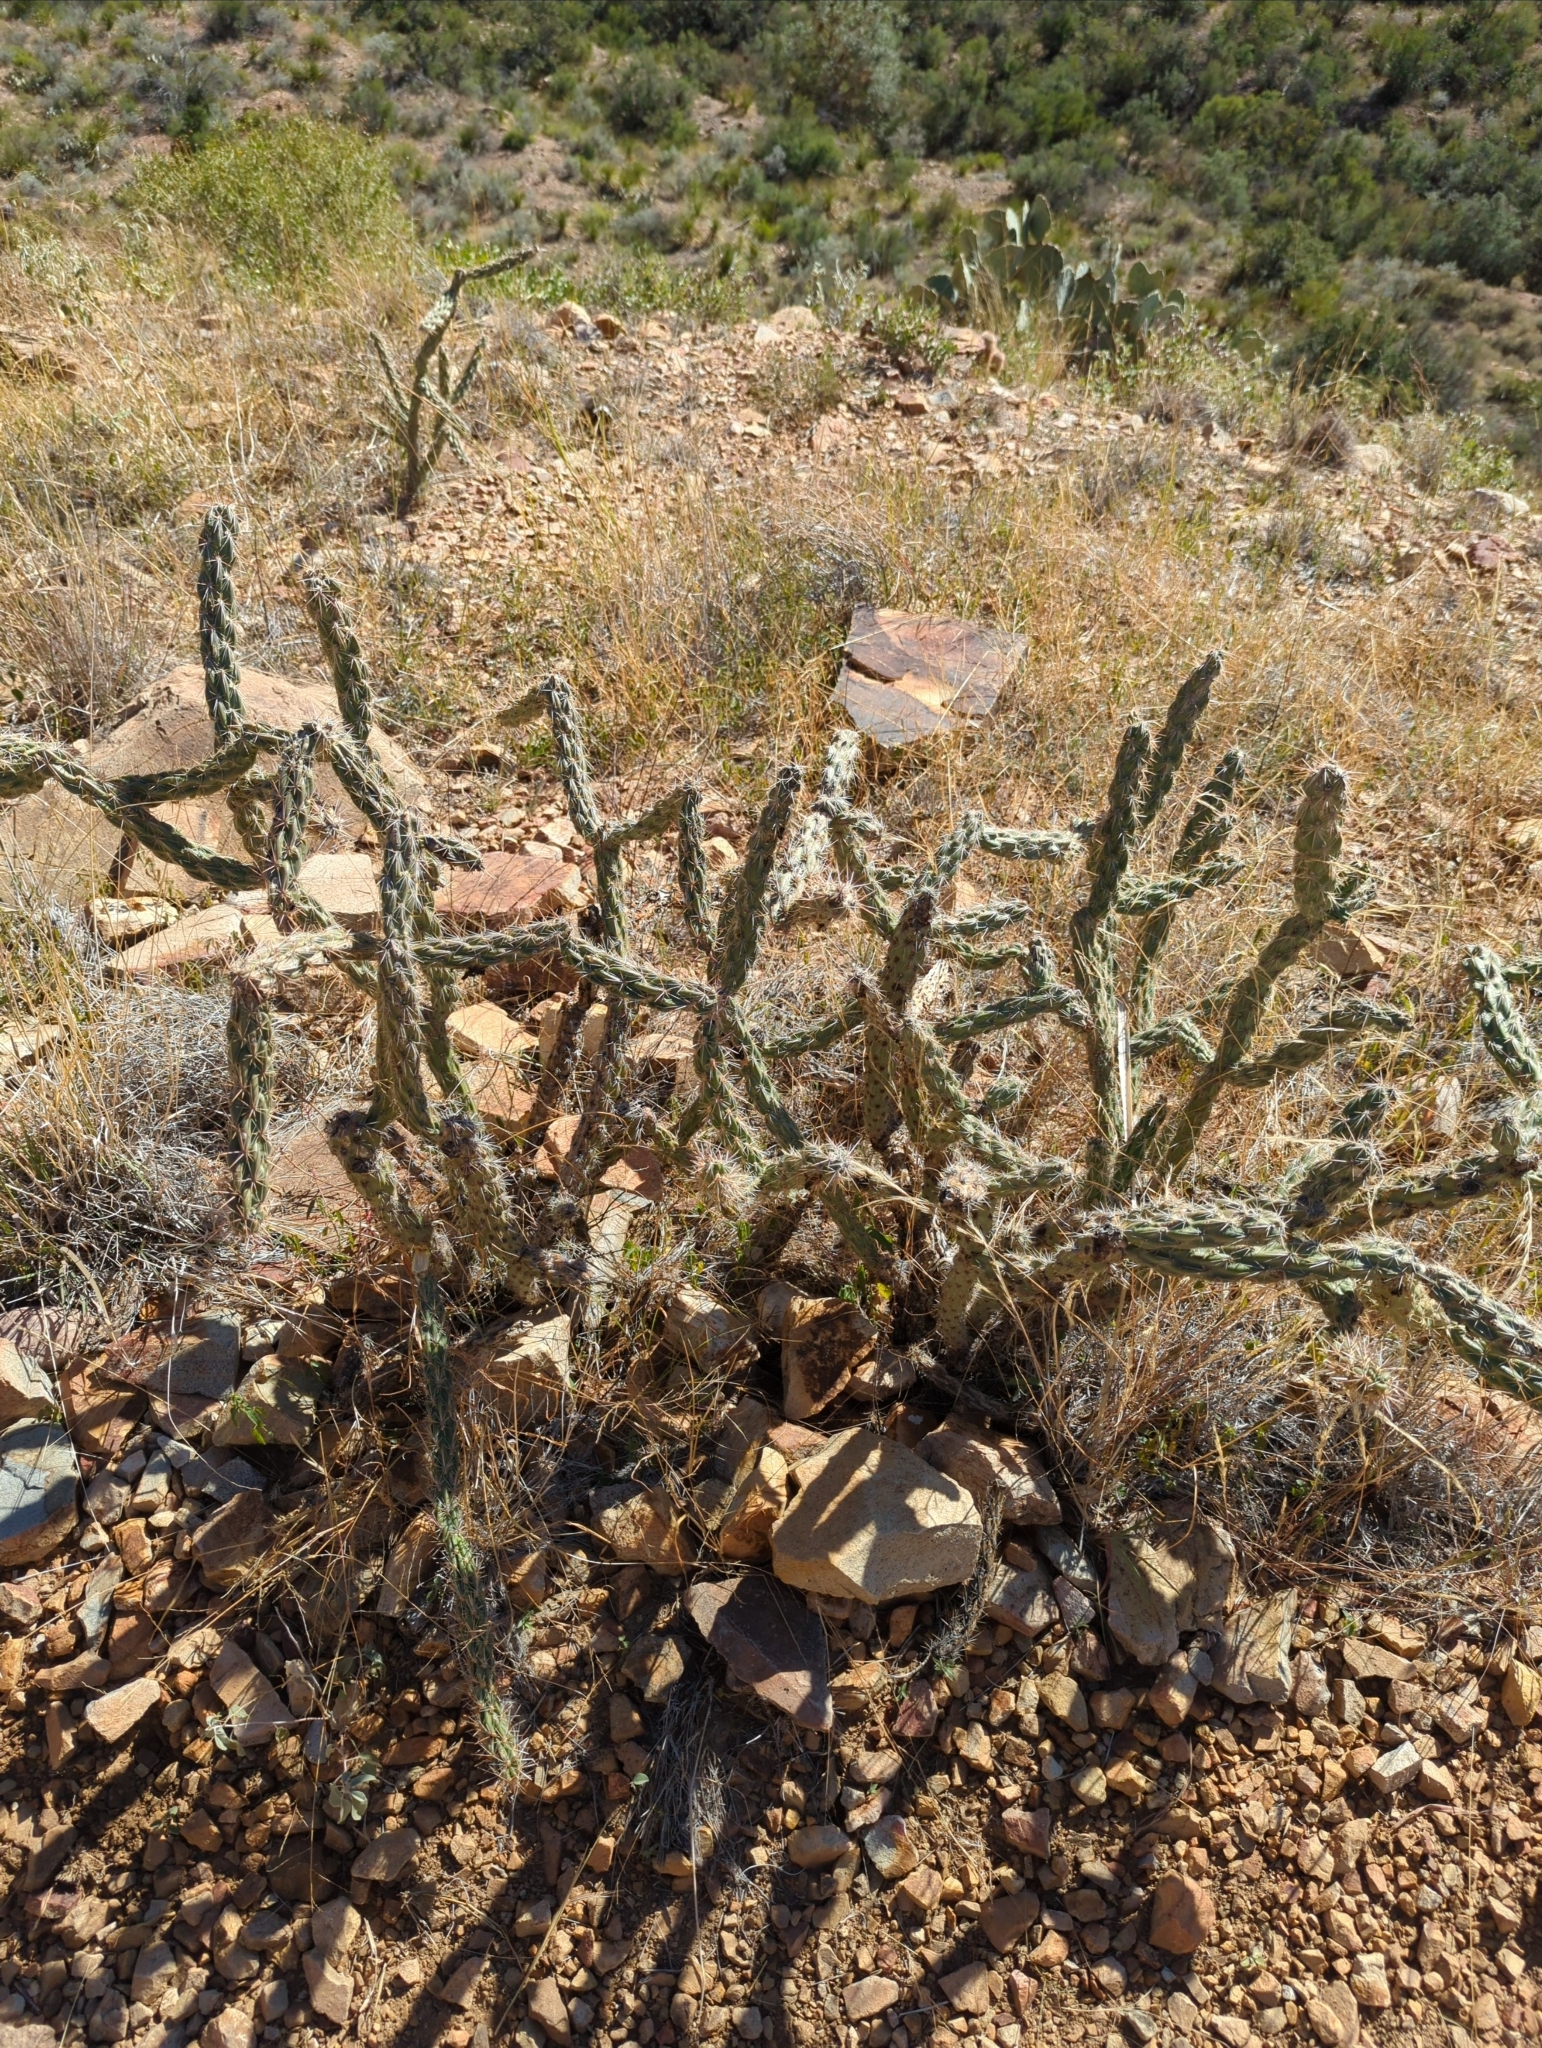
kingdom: Plantae
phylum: Tracheophyta
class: Magnoliopsida
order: Caryophyllales
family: Cactaceae
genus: Cylindropuntia
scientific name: Cylindropuntia imbricata
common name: Candelabrum cactus
